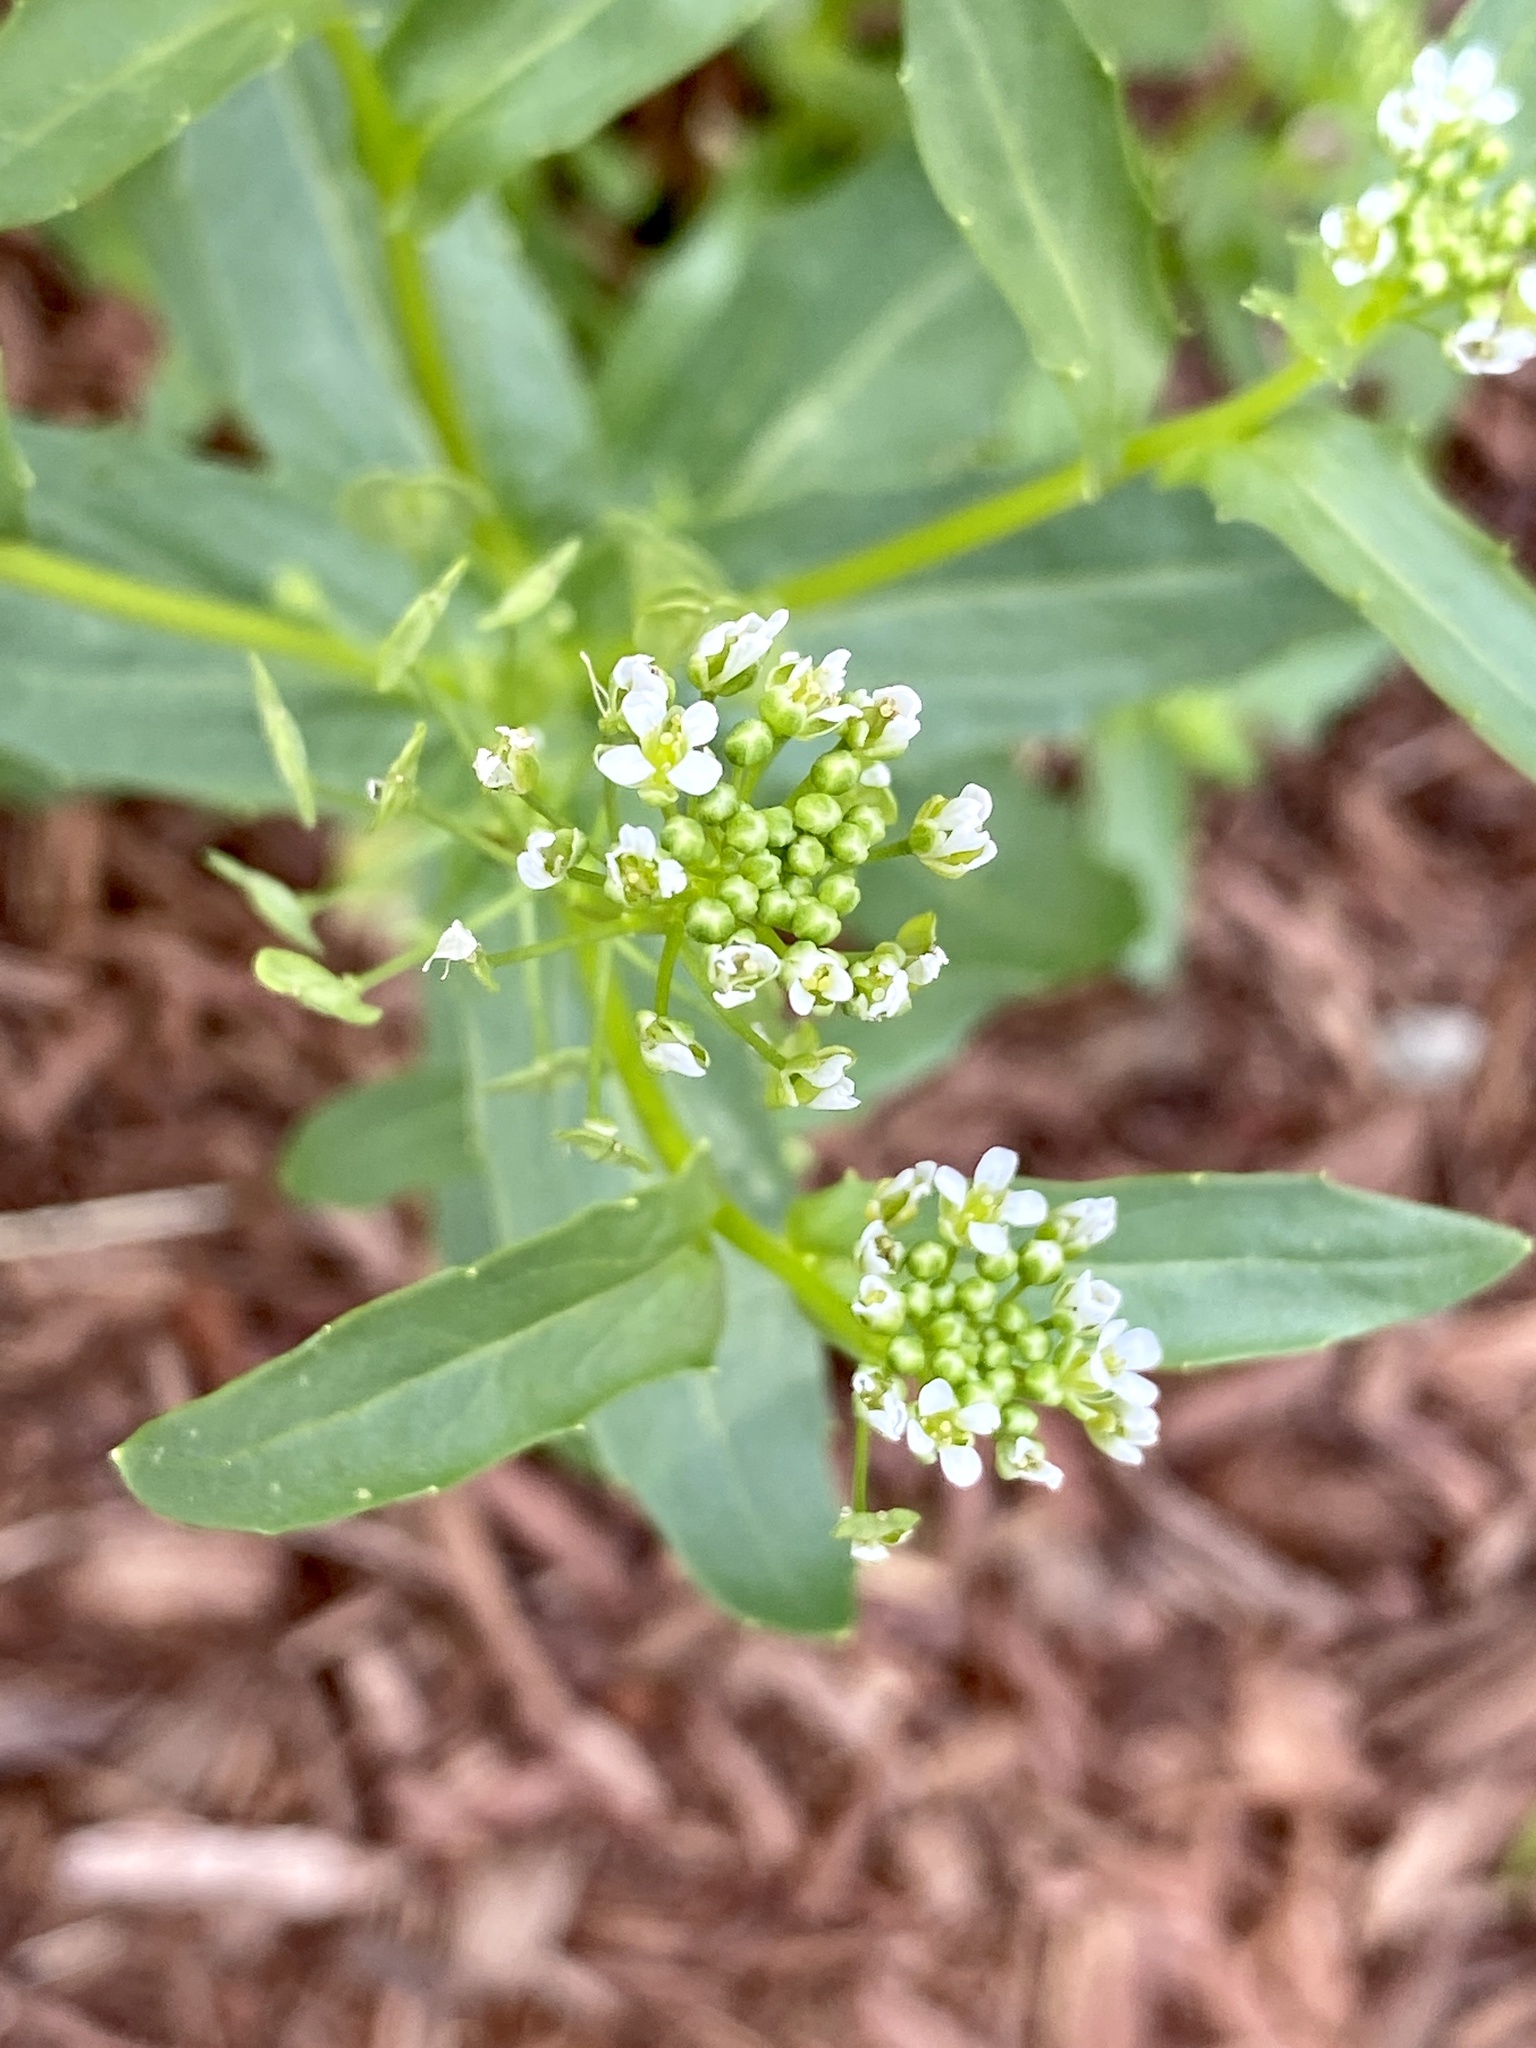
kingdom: Plantae
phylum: Tracheophyta
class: Magnoliopsida
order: Brassicales
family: Brassicaceae
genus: Thlaspi
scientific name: Thlaspi arvense
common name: Field pennycress
